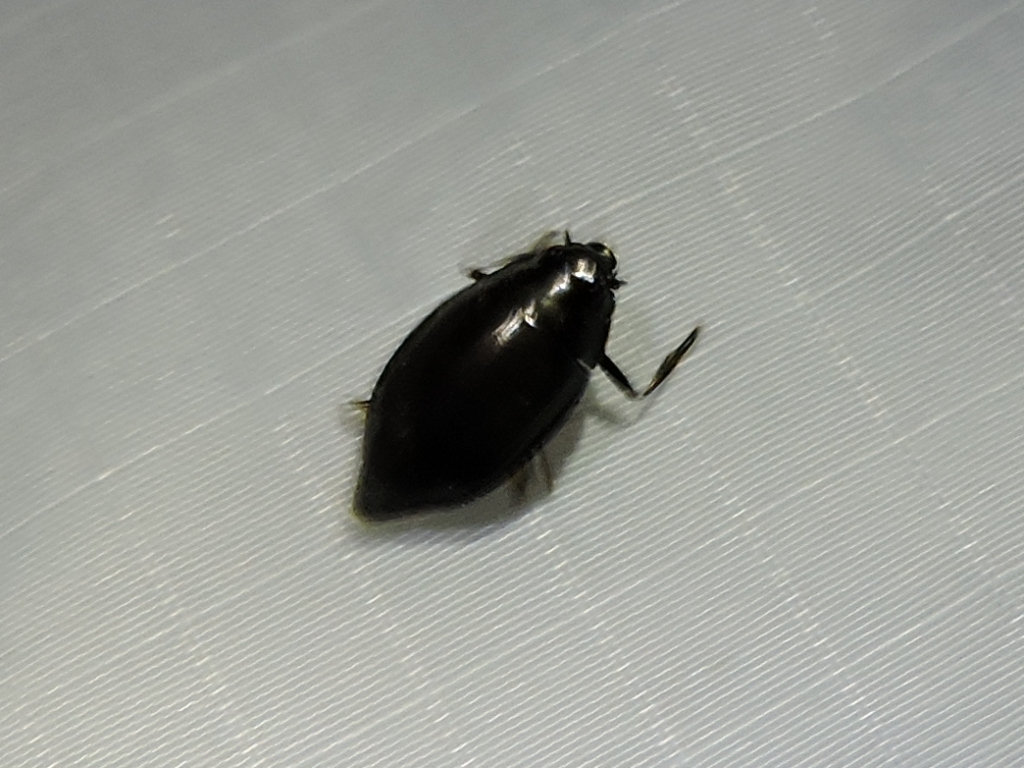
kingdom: Animalia
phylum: Arthropoda
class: Insecta
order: Coleoptera
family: Gyrinidae
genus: Dineutus
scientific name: Dineutus carolinus
